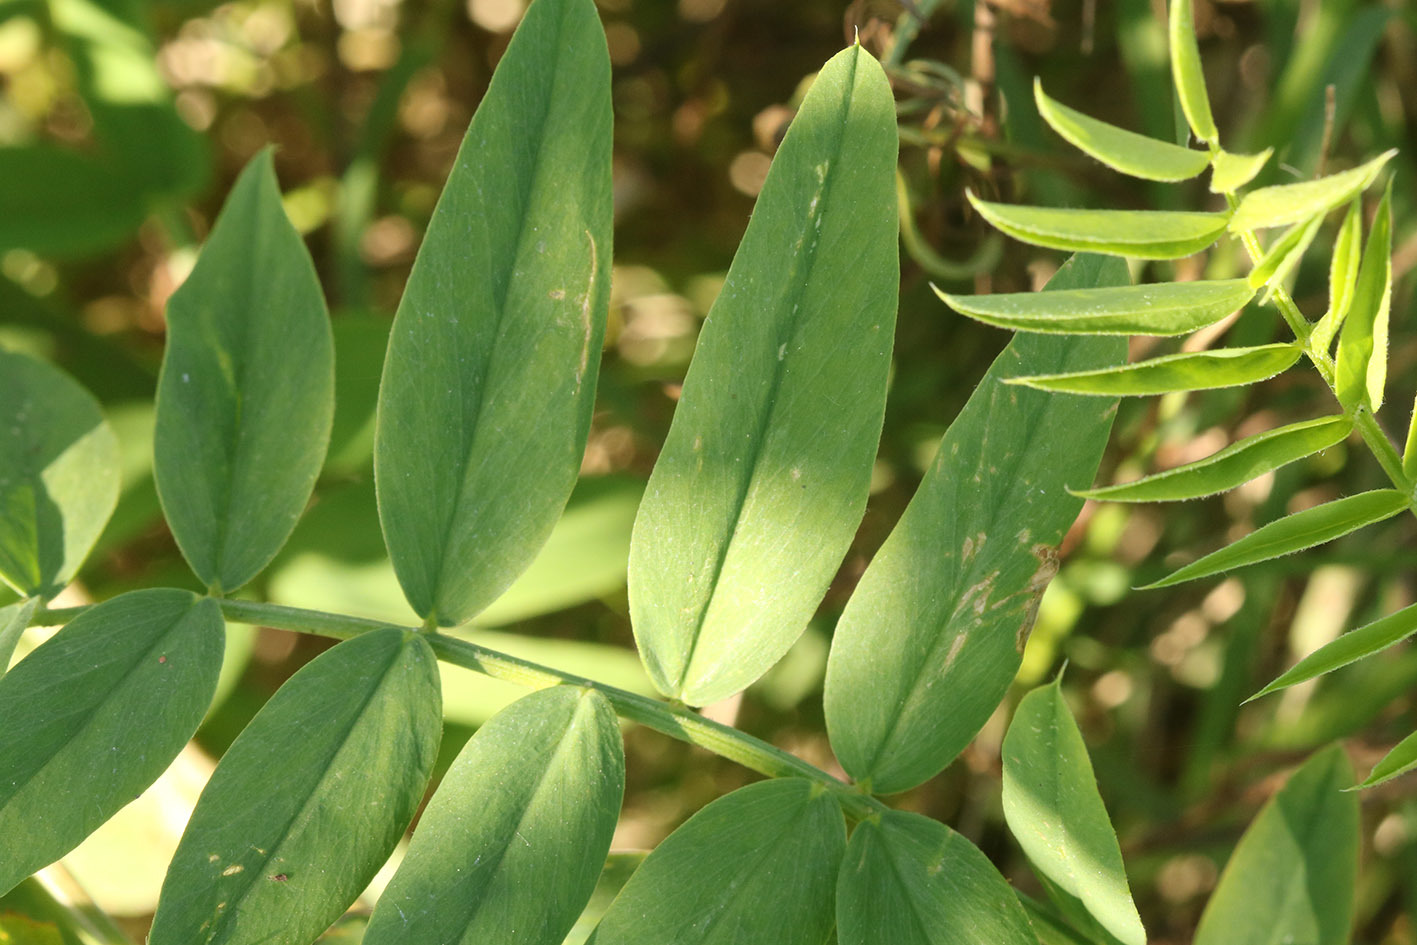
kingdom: Plantae
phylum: Tracheophyta
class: Magnoliopsida
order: Fabales
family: Fabaceae
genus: Galega
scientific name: Galega officinalis
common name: Goat's-rue
